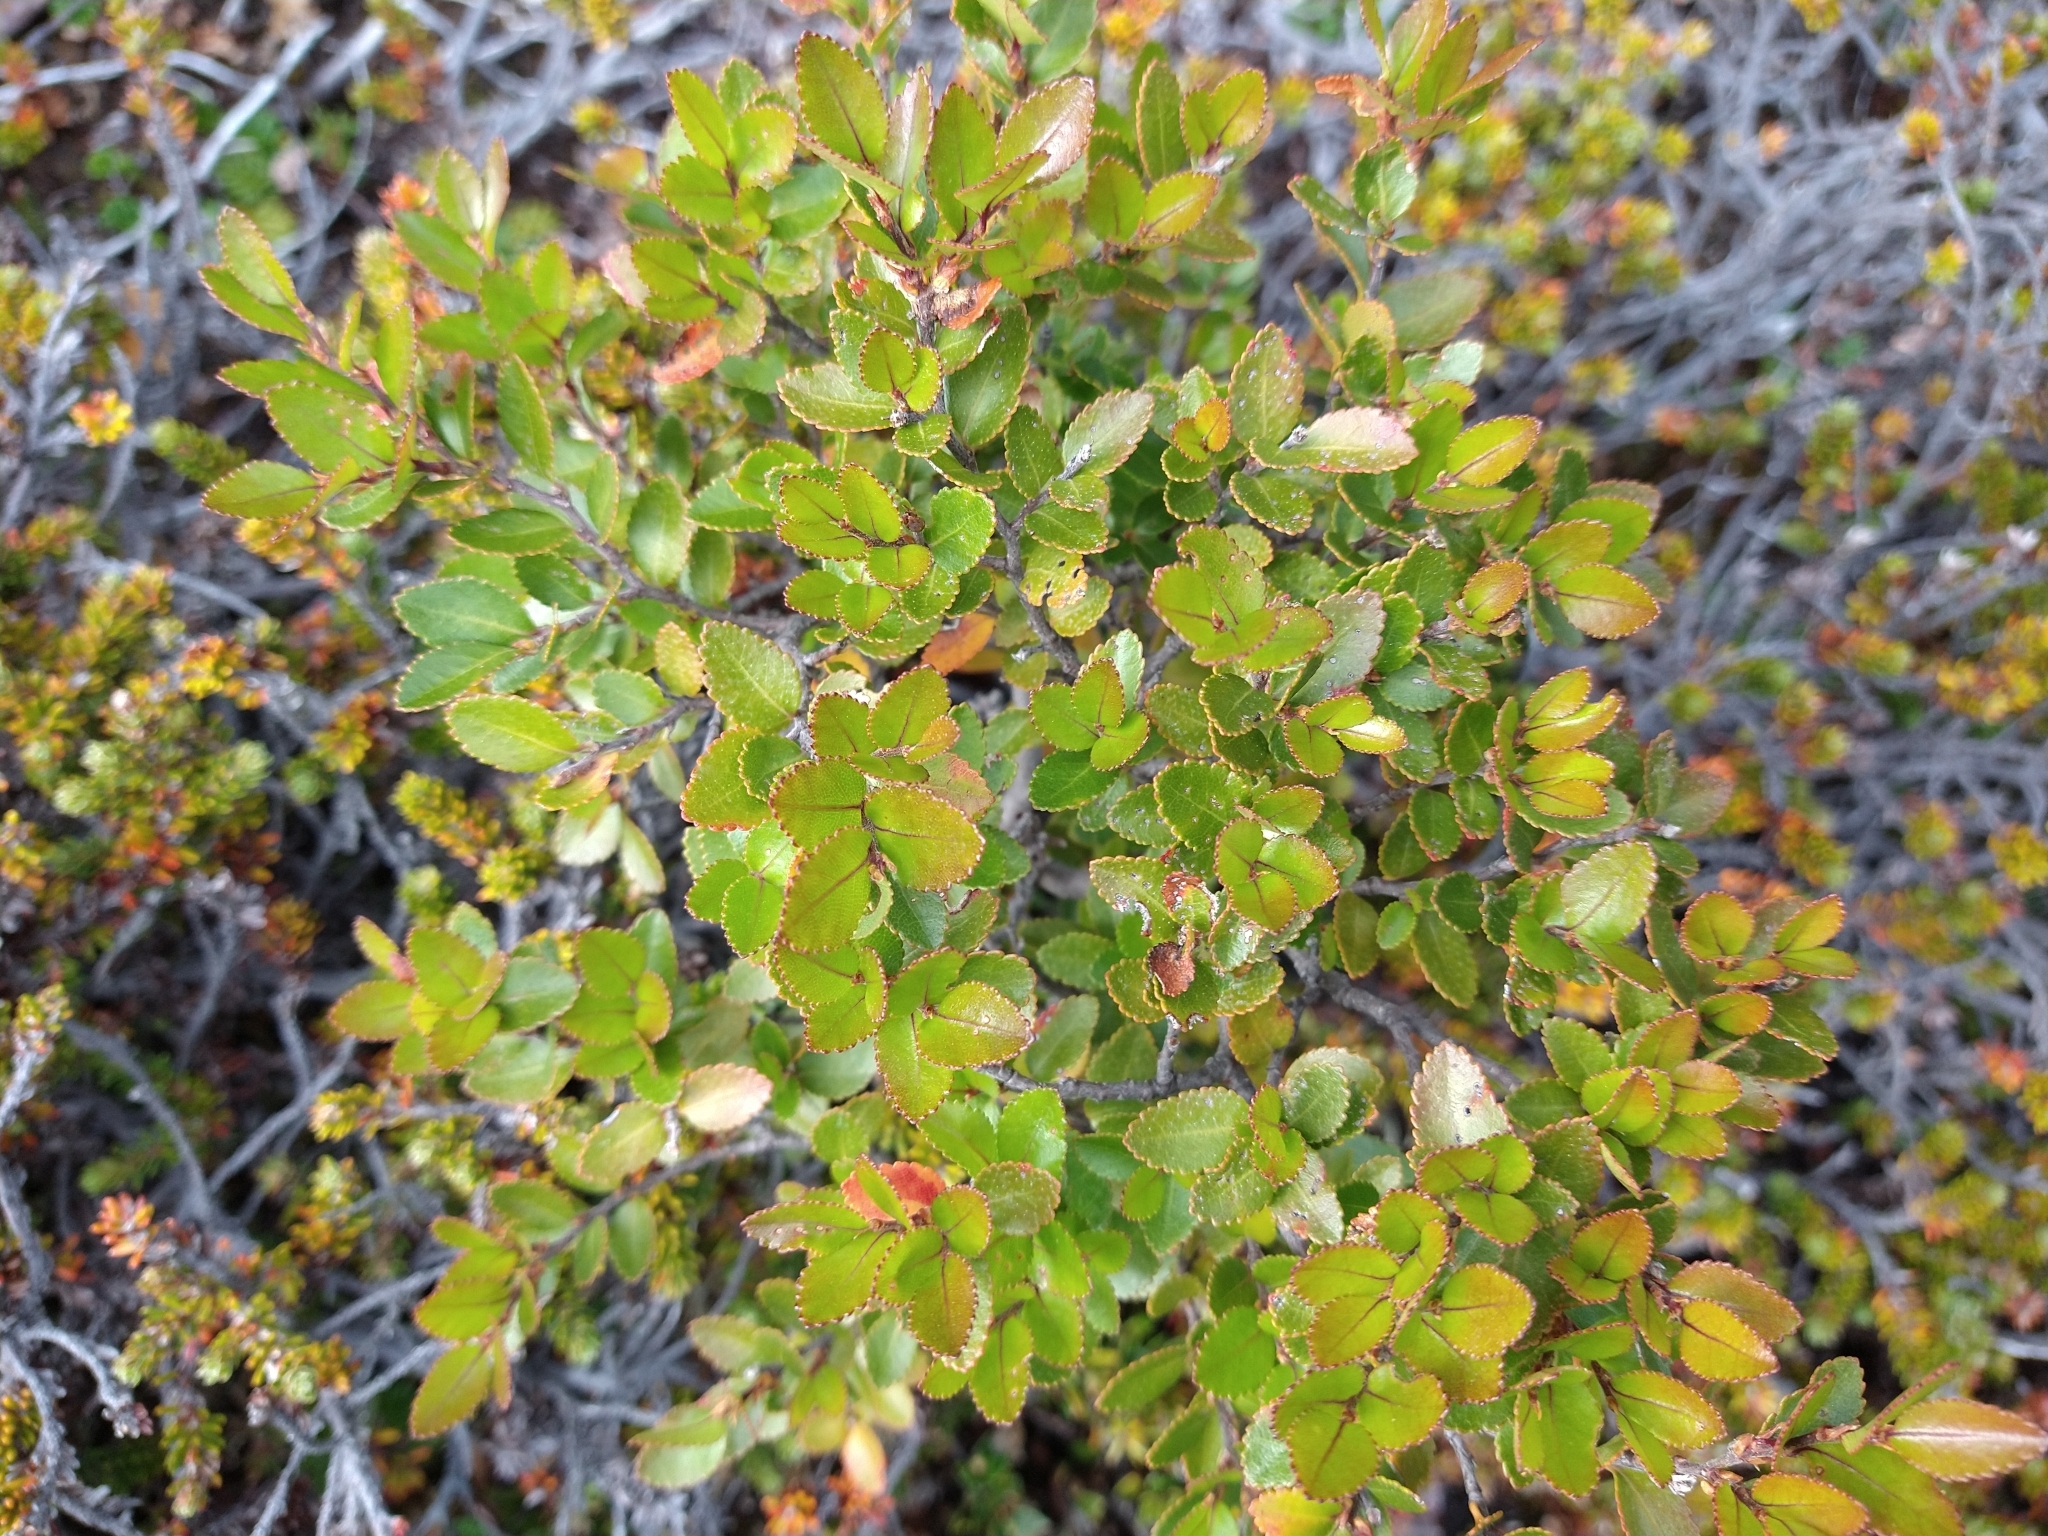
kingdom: Plantae
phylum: Tracheophyta
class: Magnoliopsida
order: Fagales
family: Nothofagaceae
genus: Nothofagus
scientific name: Nothofagus betuloides
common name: Magellan's beech
